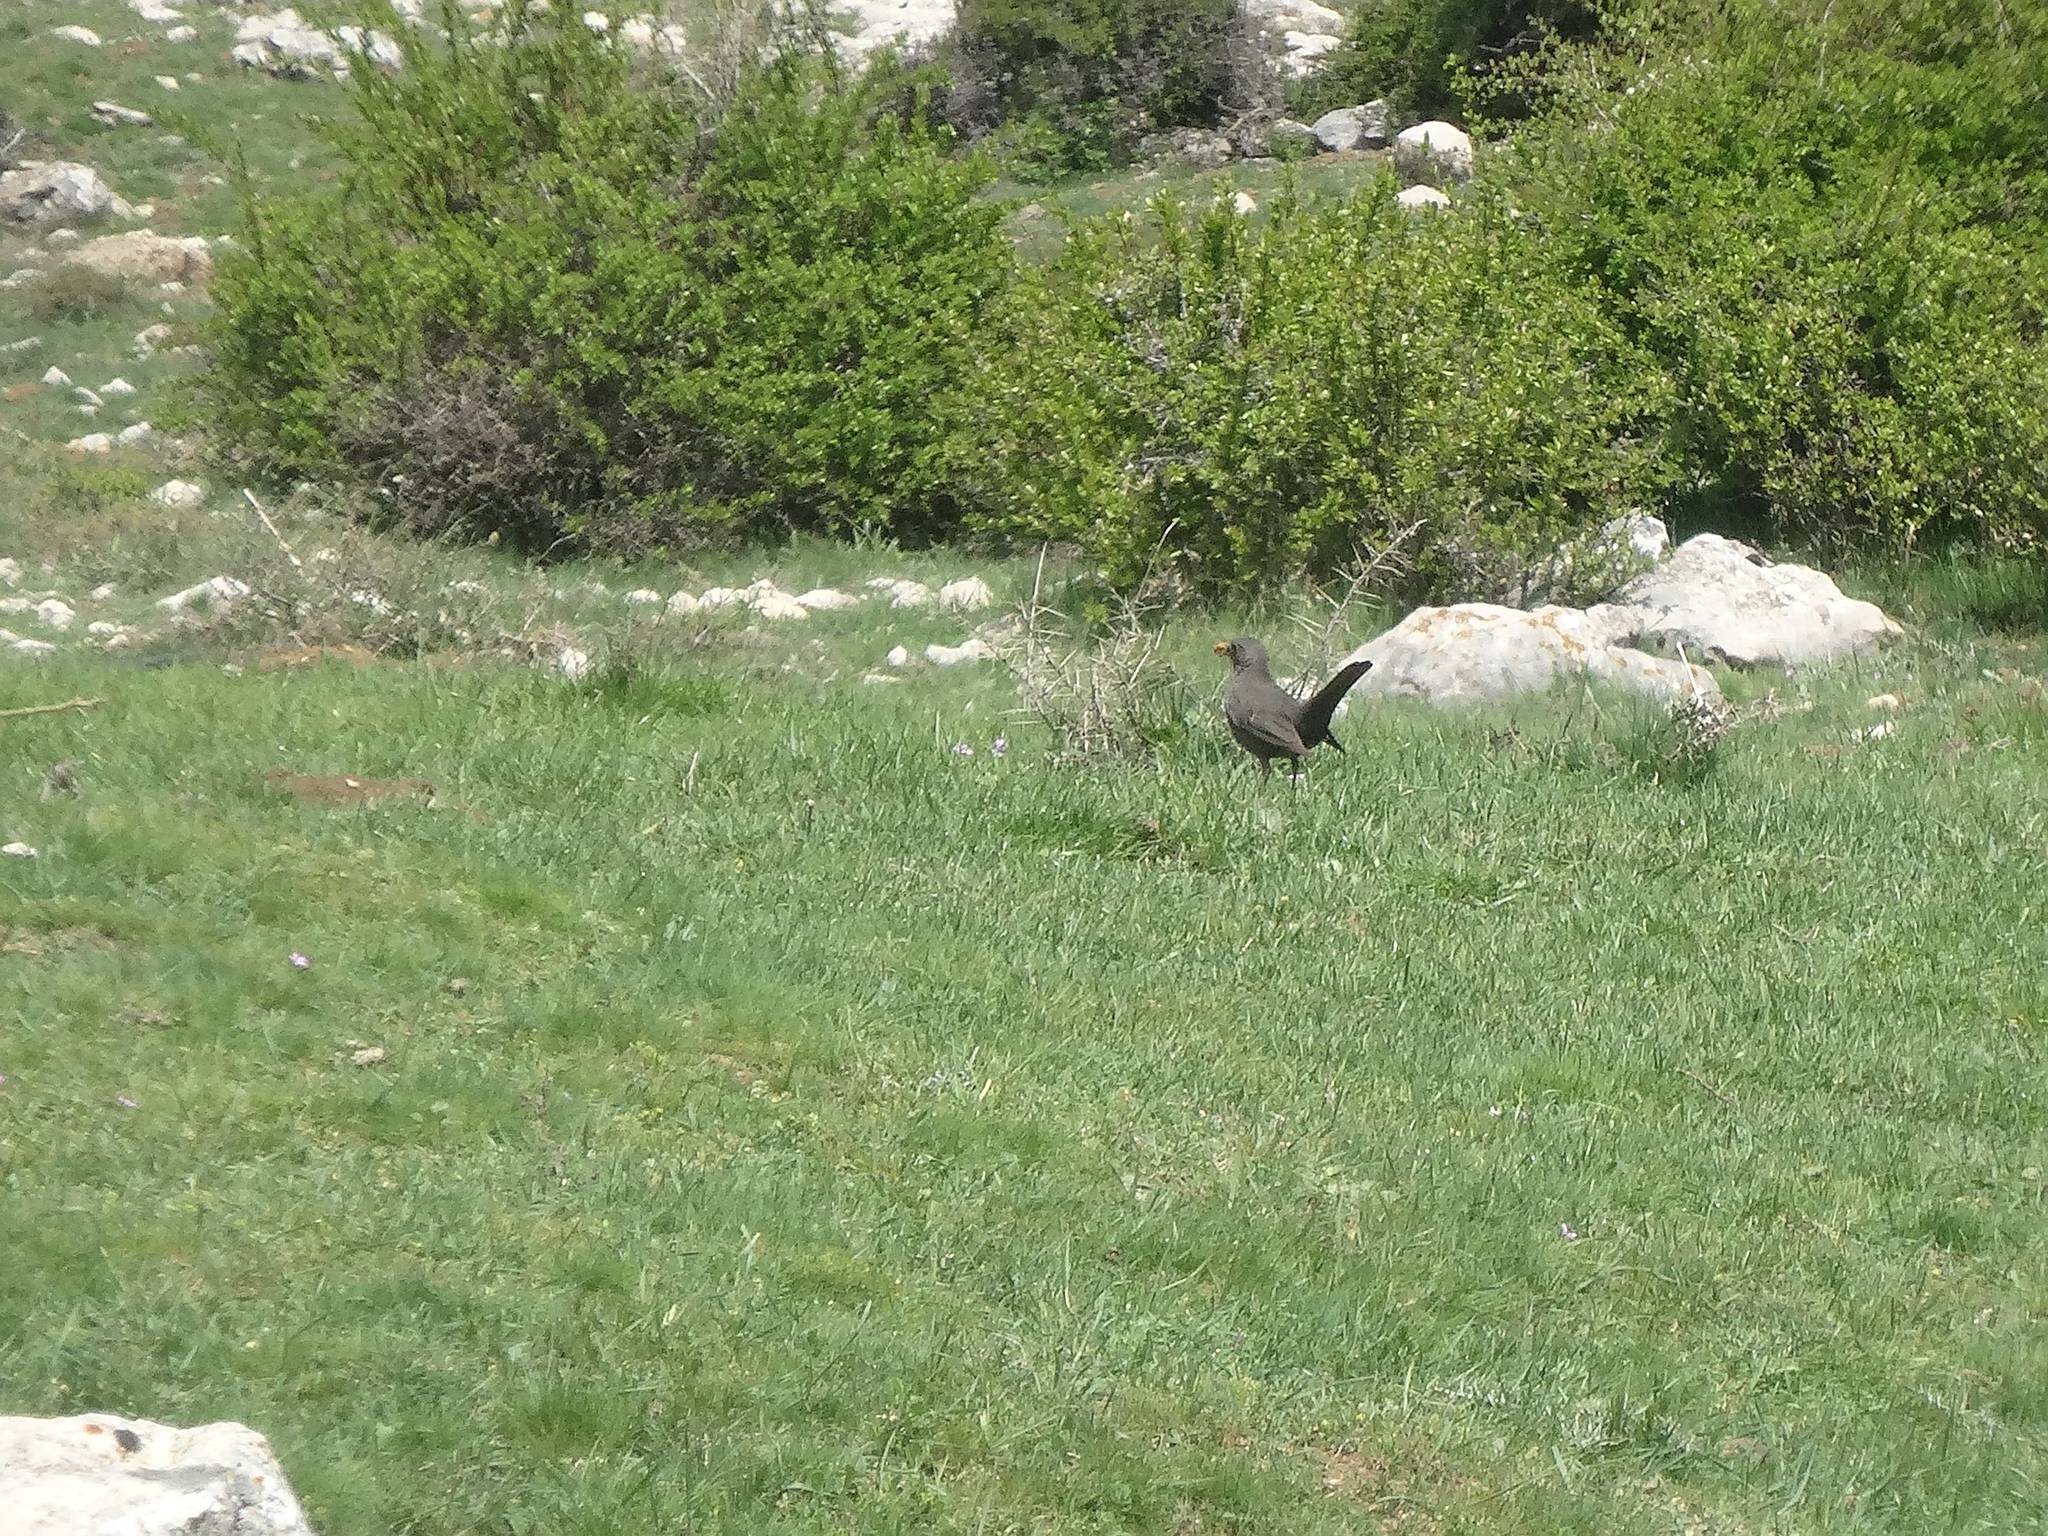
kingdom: Animalia
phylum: Chordata
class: Aves
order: Passeriformes
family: Turdidae
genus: Turdus
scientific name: Turdus merula
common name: Common blackbird
